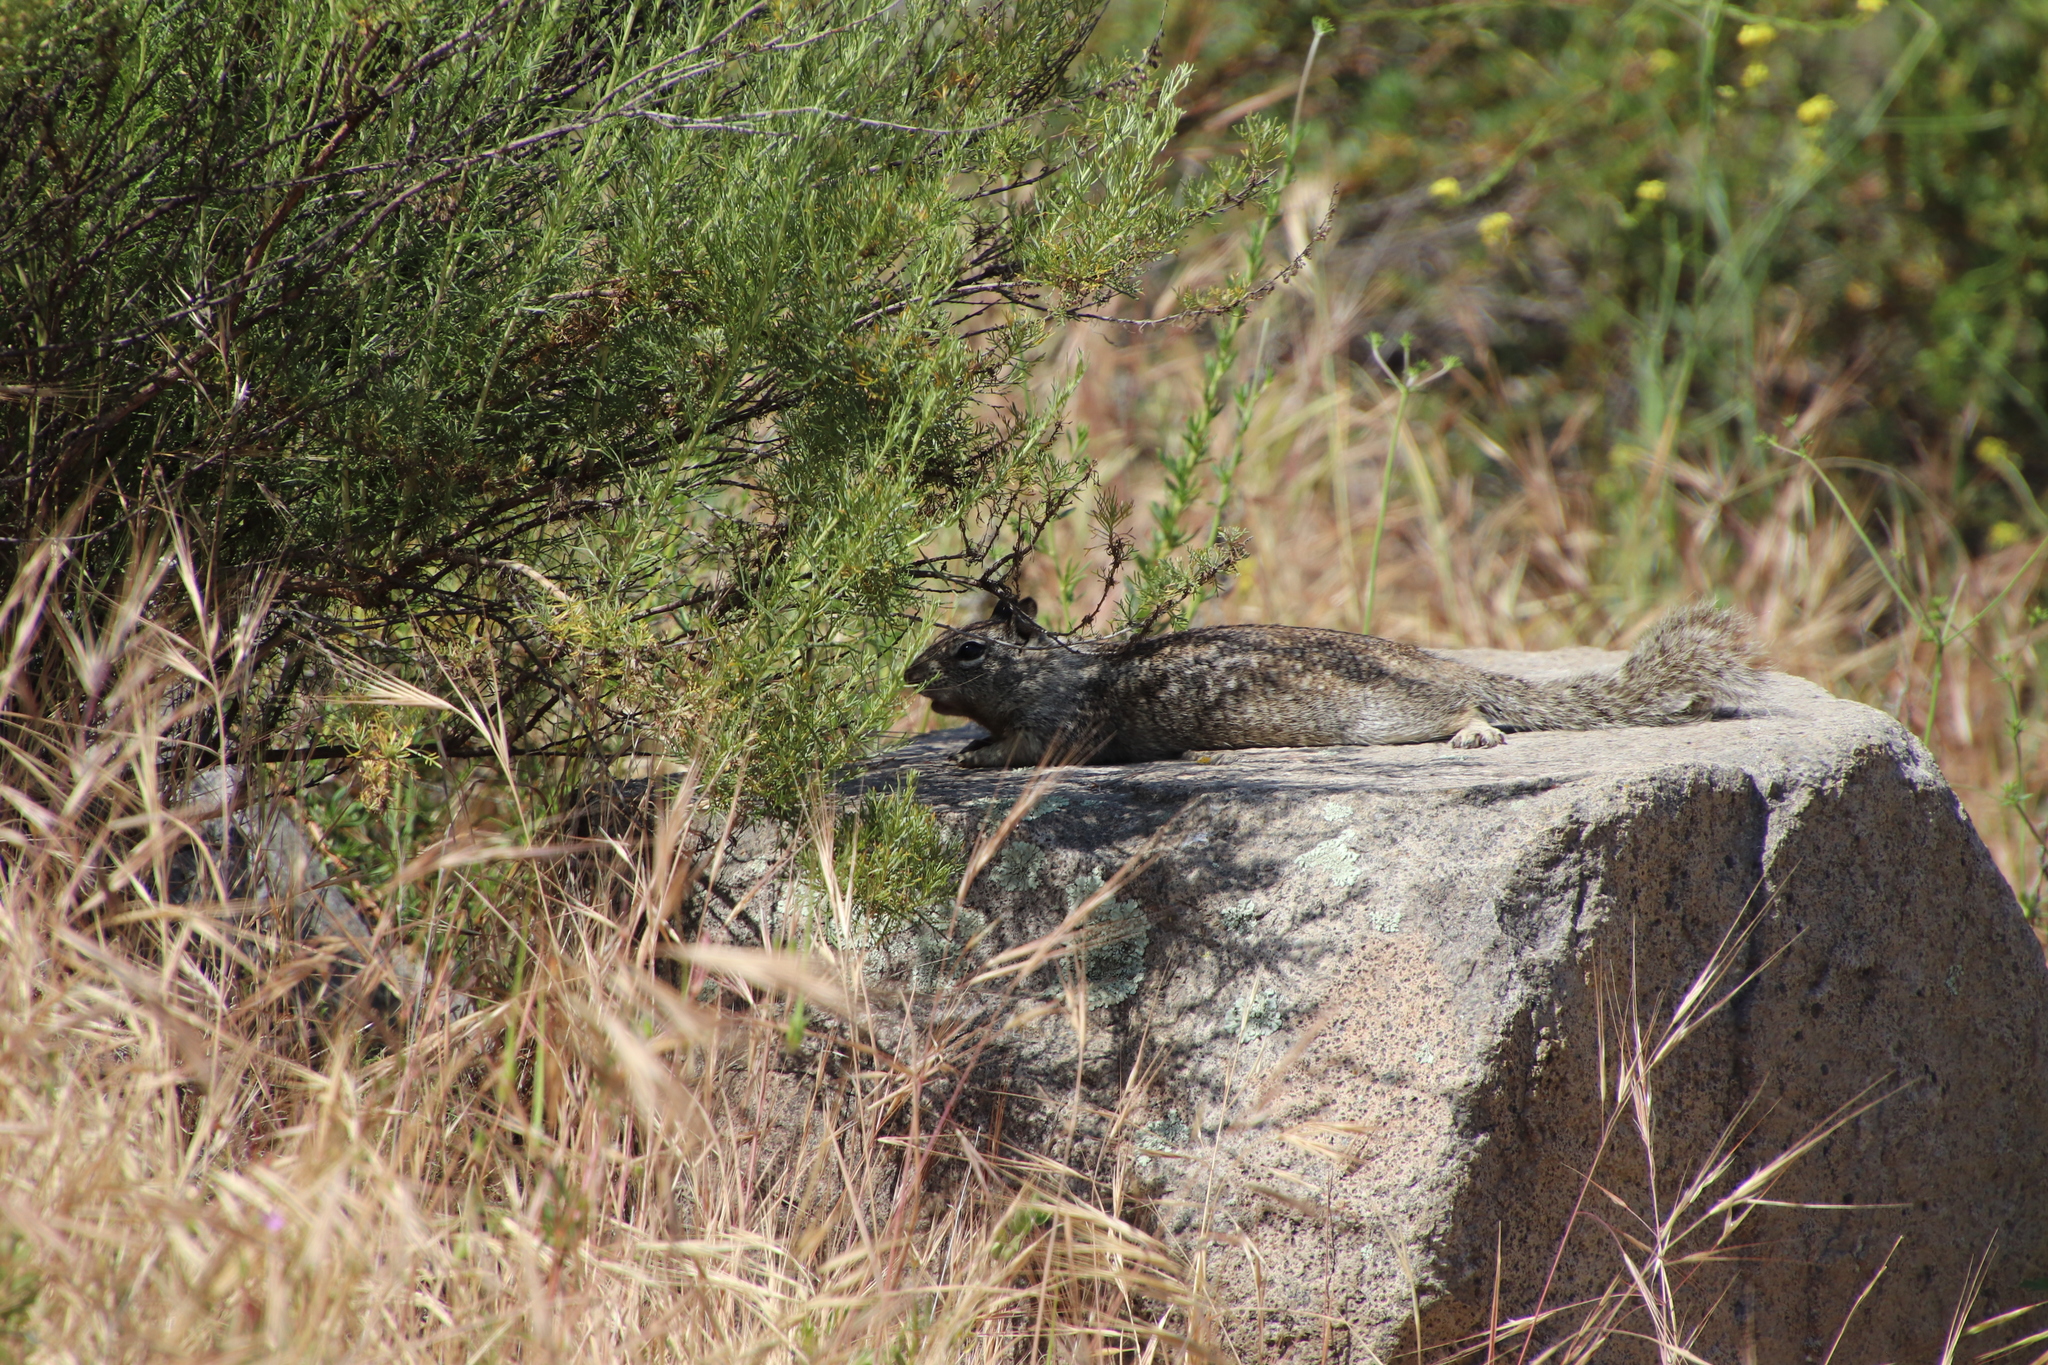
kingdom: Animalia
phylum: Chordata
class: Mammalia
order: Rodentia
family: Sciuridae
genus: Otospermophilus
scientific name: Otospermophilus beecheyi
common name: California ground squirrel
